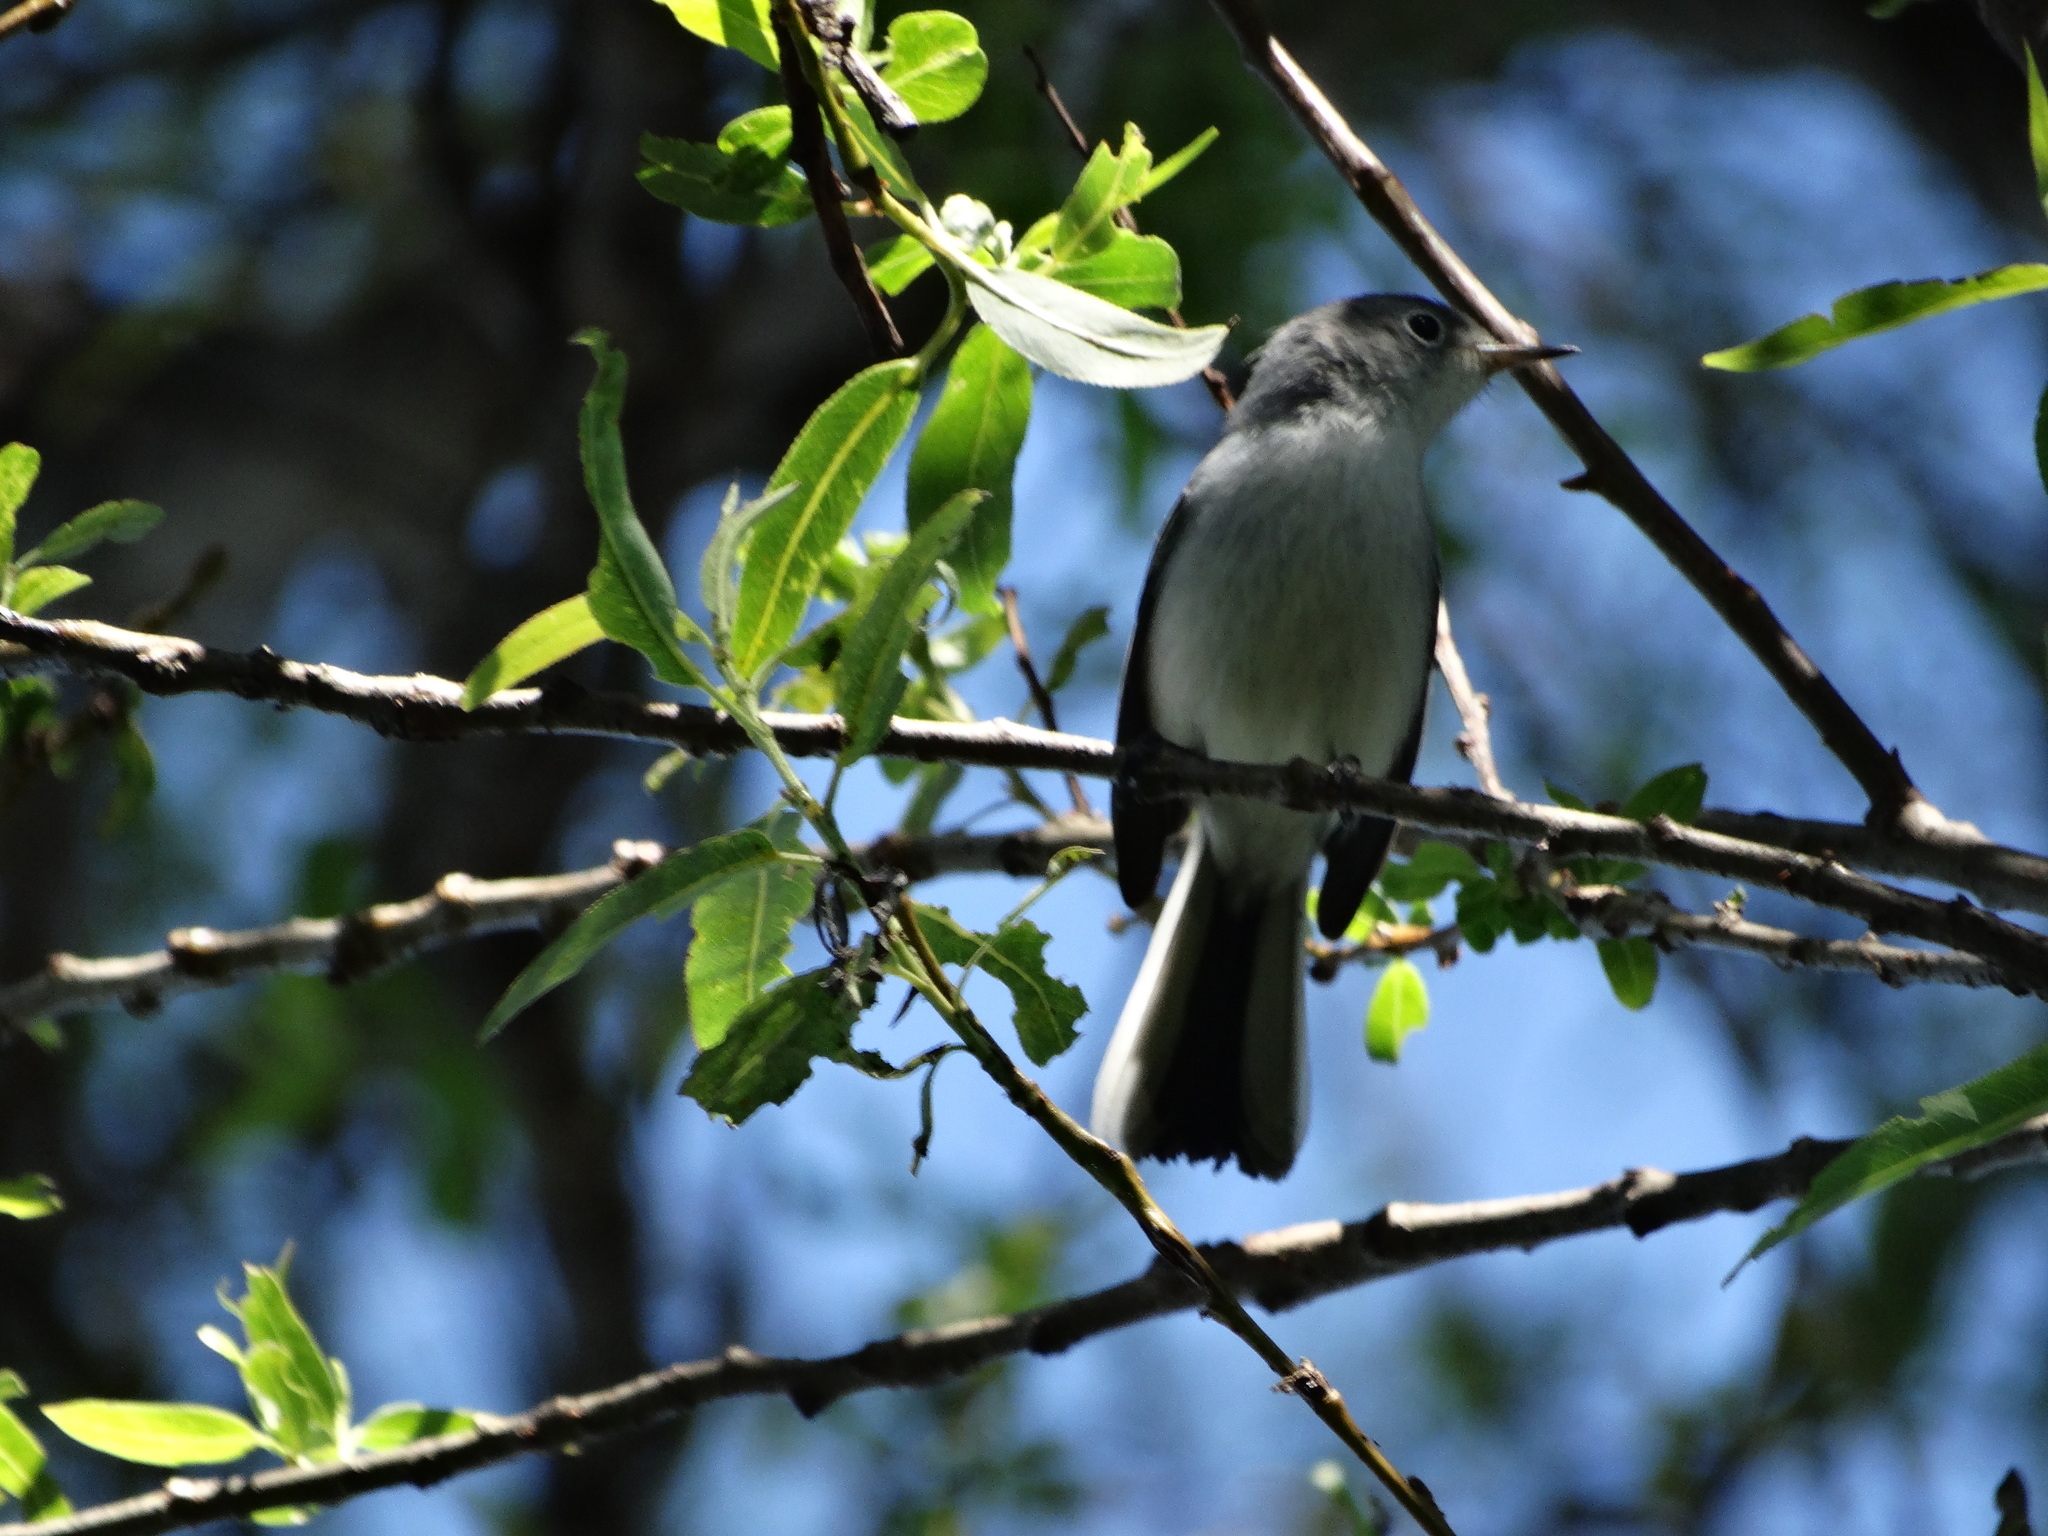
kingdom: Animalia
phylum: Chordata
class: Aves
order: Passeriformes
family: Polioptilidae
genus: Polioptila
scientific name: Polioptila caerulea
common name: Blue-gray gnatcatcher
